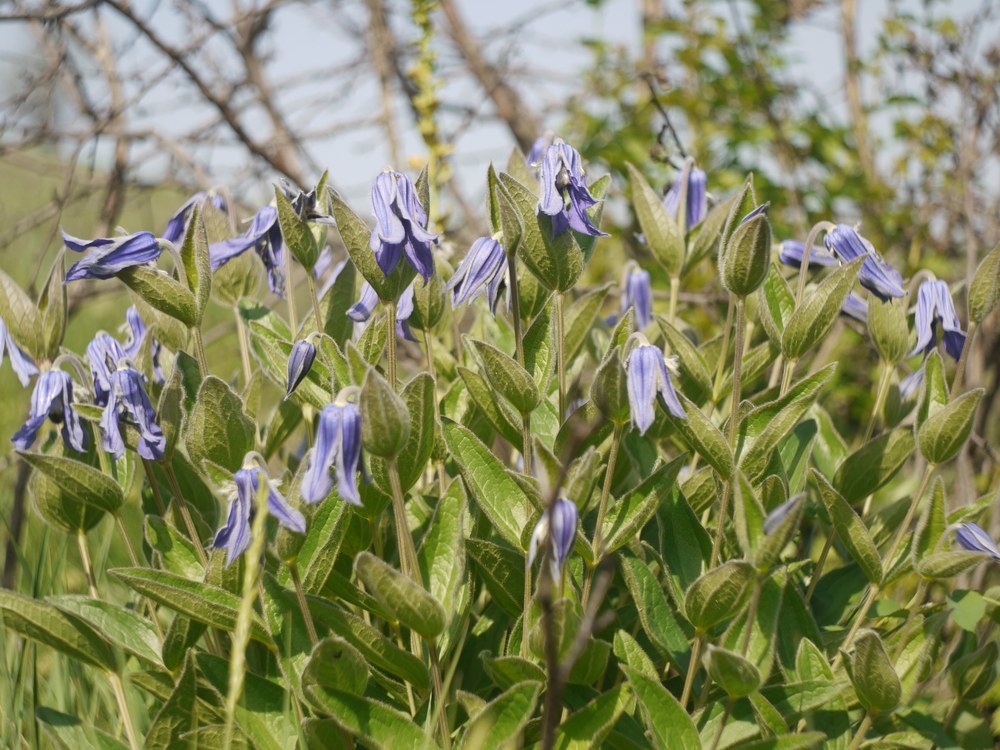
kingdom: Plantae
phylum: Tracheophyta
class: Magnoliopsida
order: Ranunculales
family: Ranunculaceae
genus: Clematis
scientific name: Clematis integrifolia
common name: Solitary clematis
